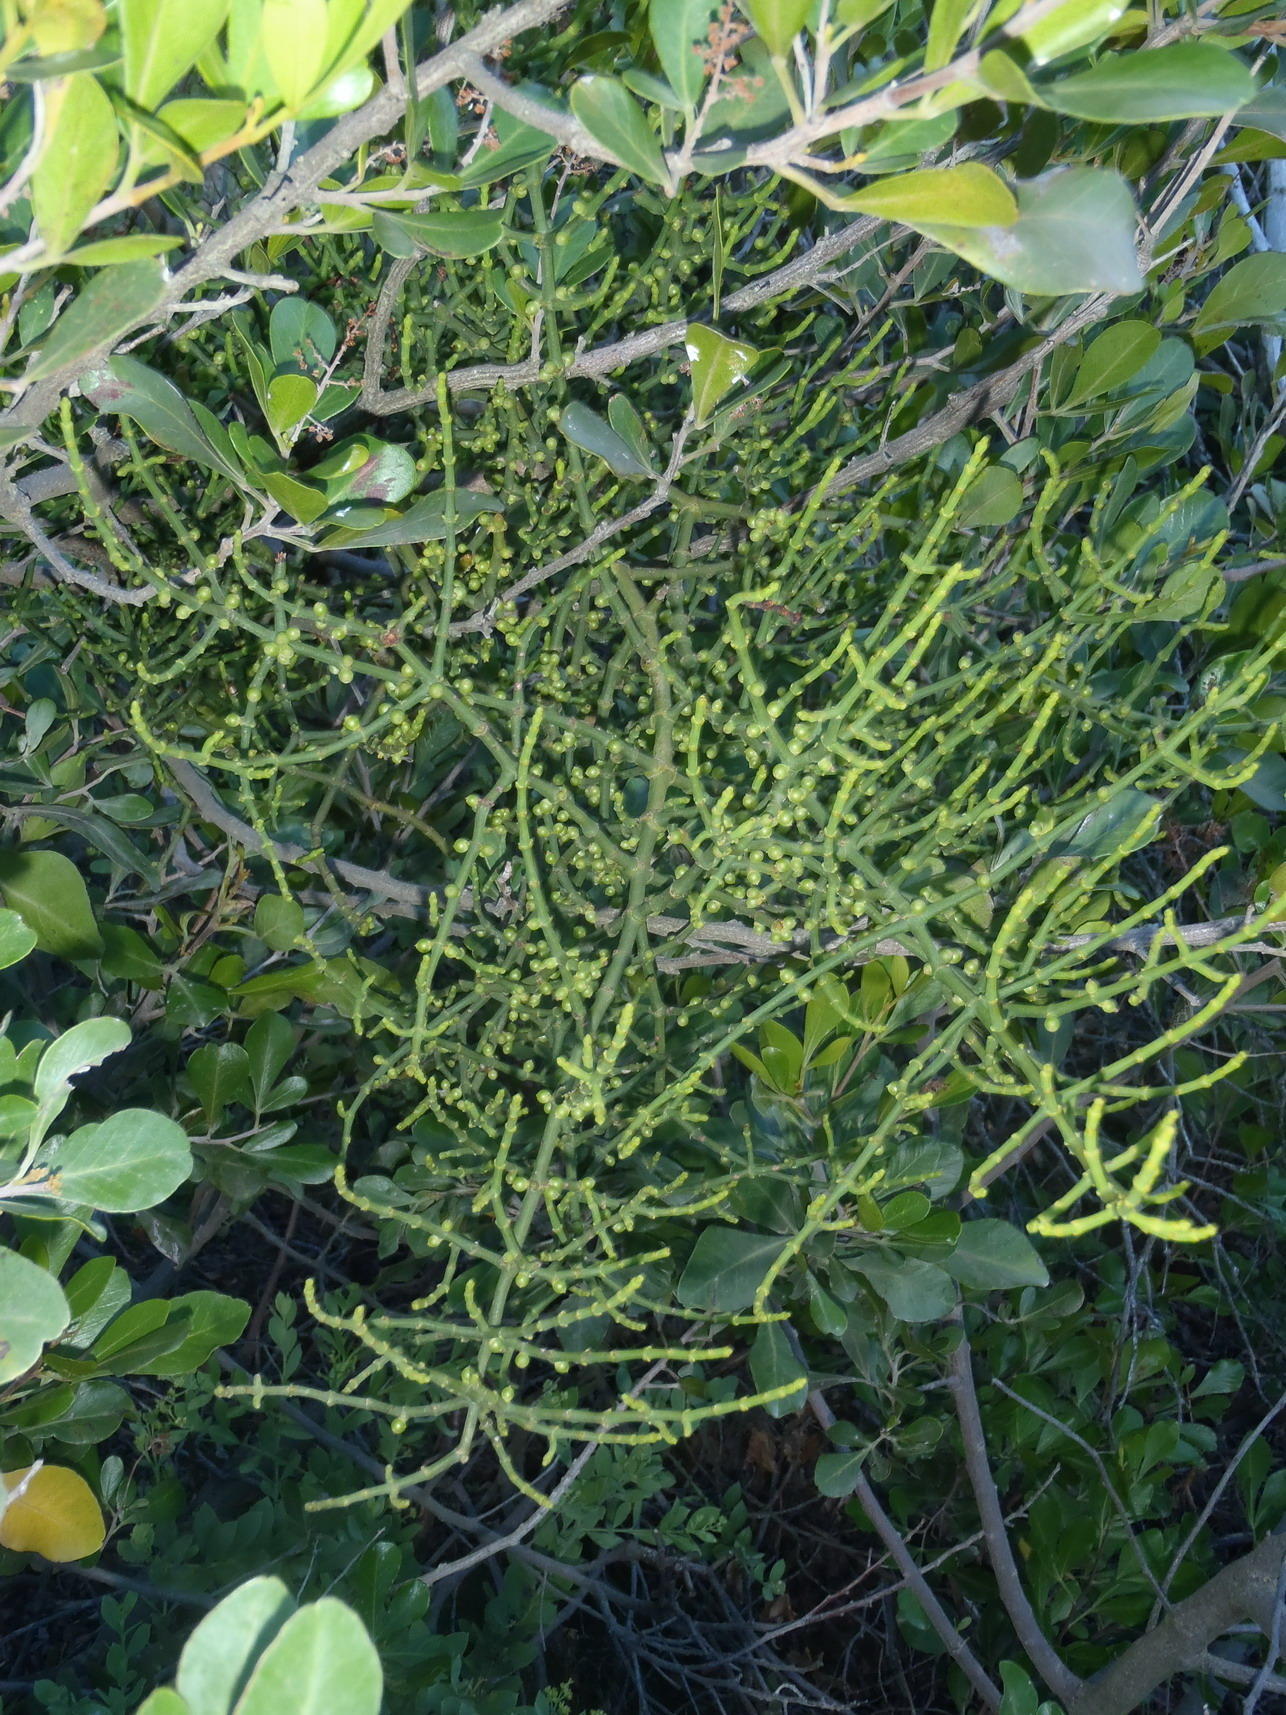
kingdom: Plantae
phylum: Tracheophyta
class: Magnoliopsida
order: Santalales
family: Viscaceae
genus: Viscum
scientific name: Viscum hoolei
